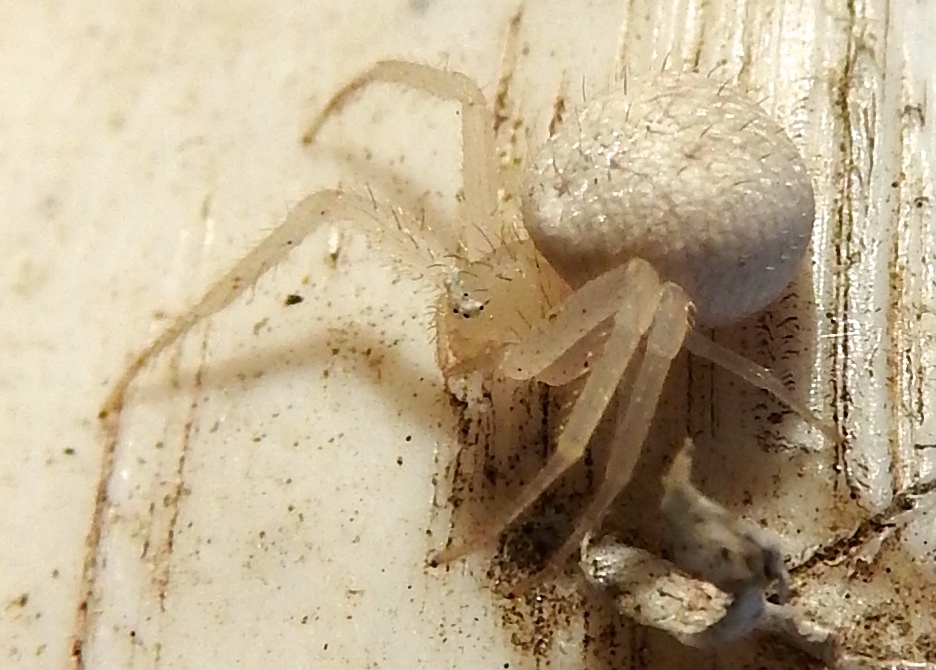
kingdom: Animalia
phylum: Arthropoda
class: Arachnida
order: Araneae
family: Thomisidae
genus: Mecaphesa
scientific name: Mecaphesa
